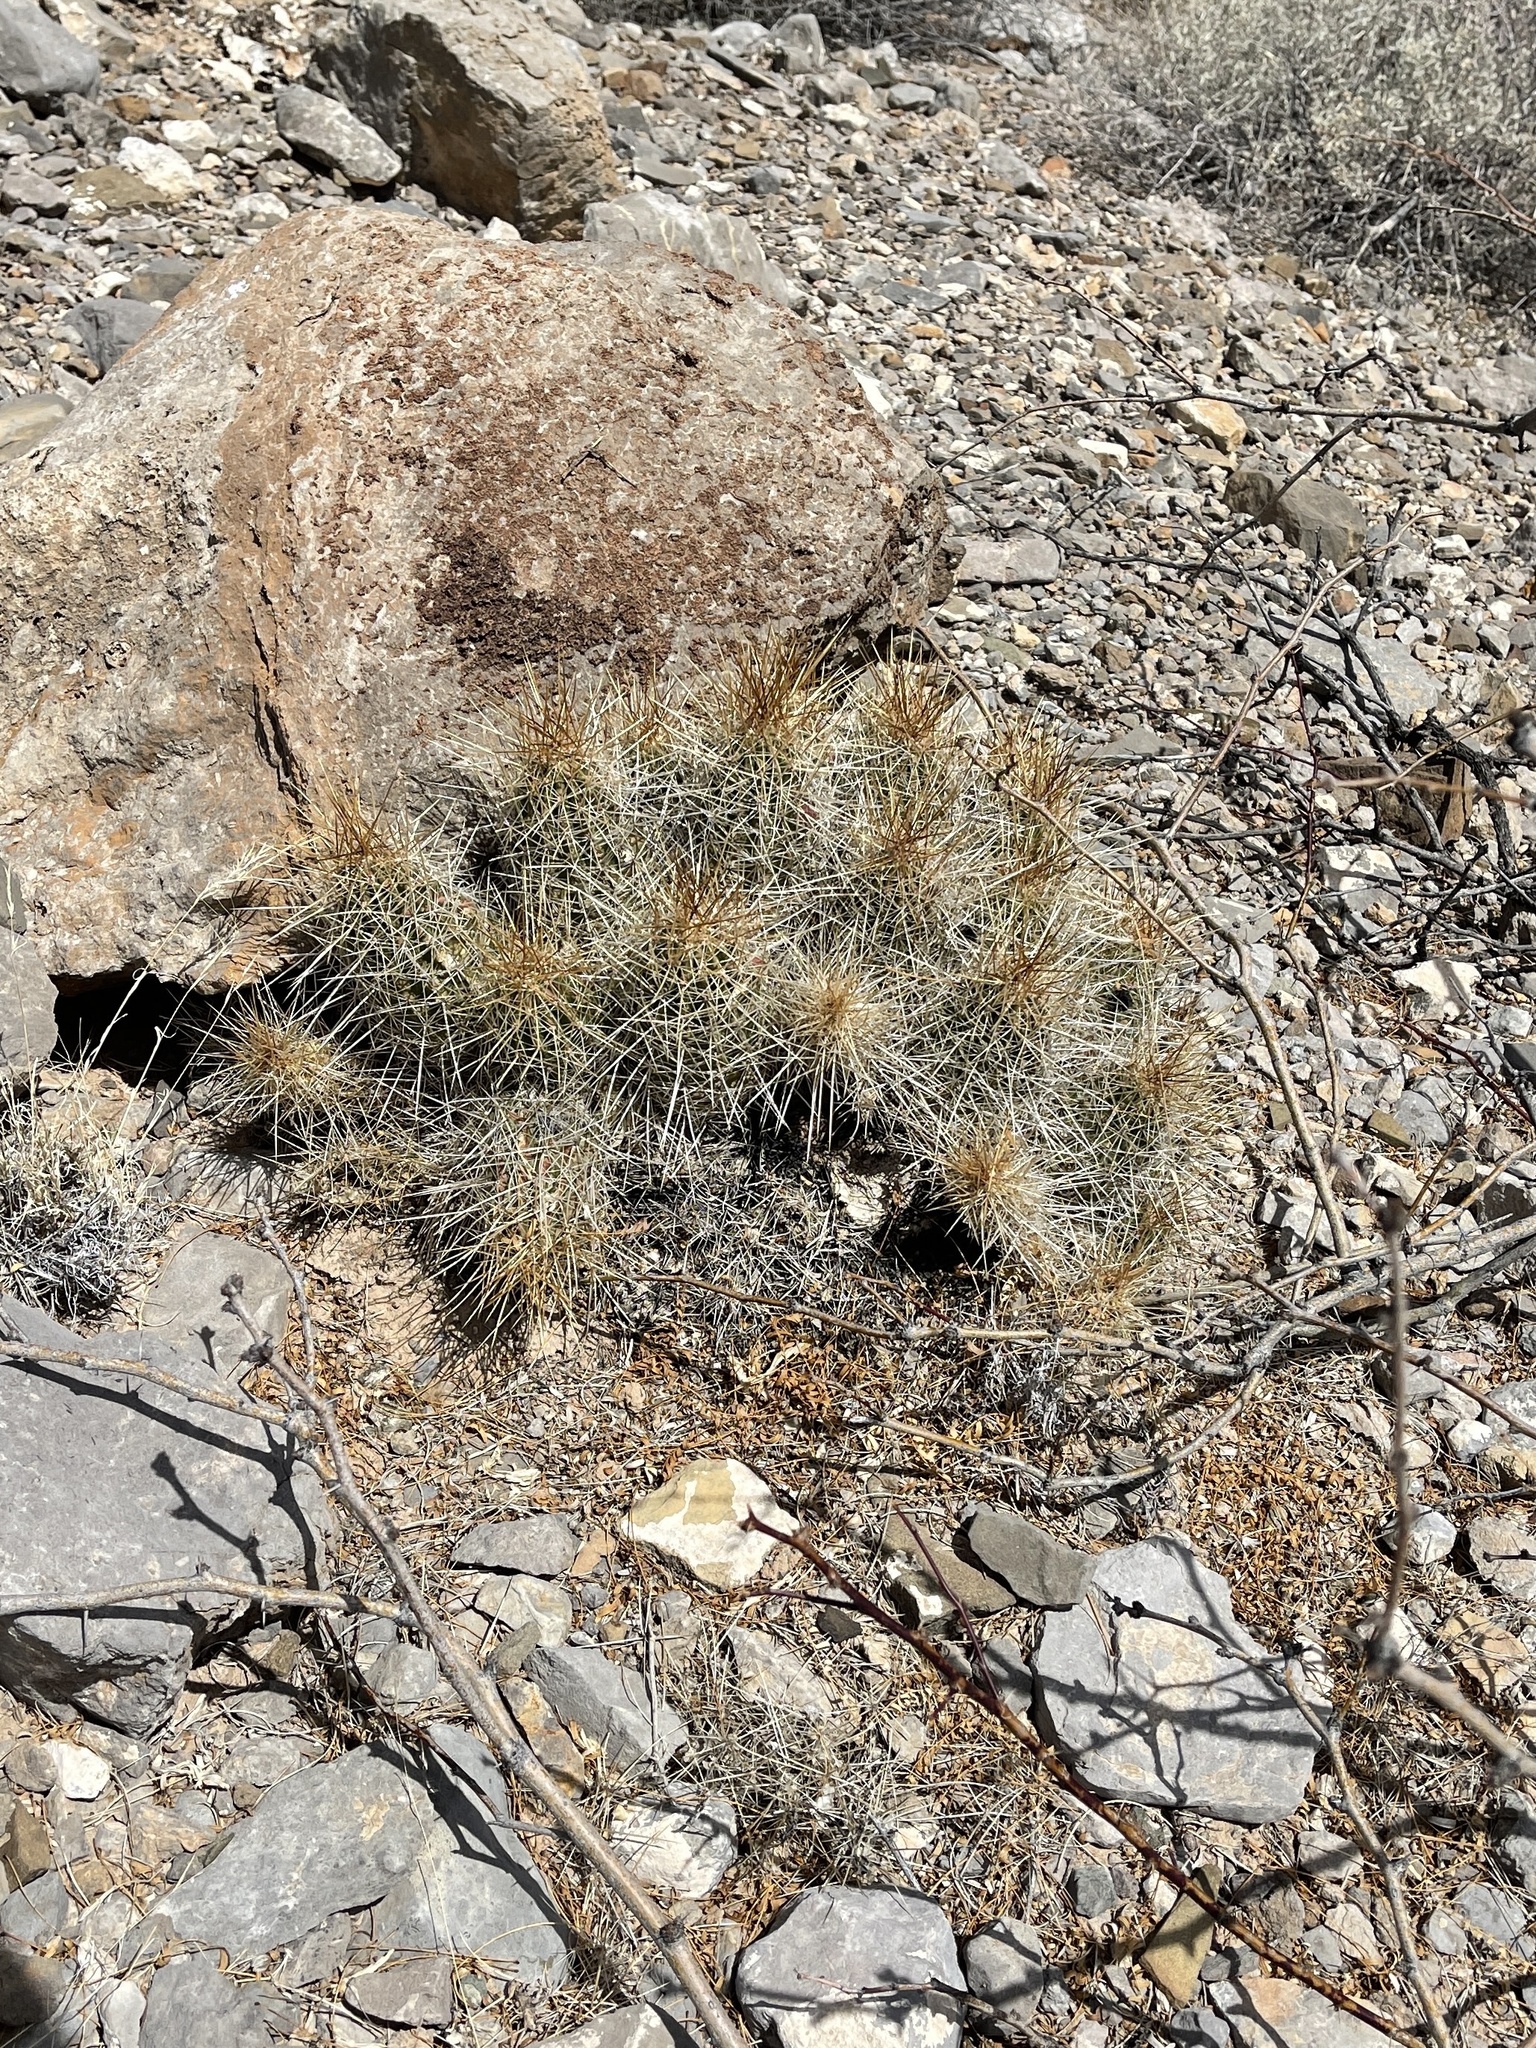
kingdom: Plantae
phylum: Tracheophyta
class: Magnoliopsida
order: Caryophyllales
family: Cactaceae
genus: Echinocereus
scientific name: Echinocereus stramineus
